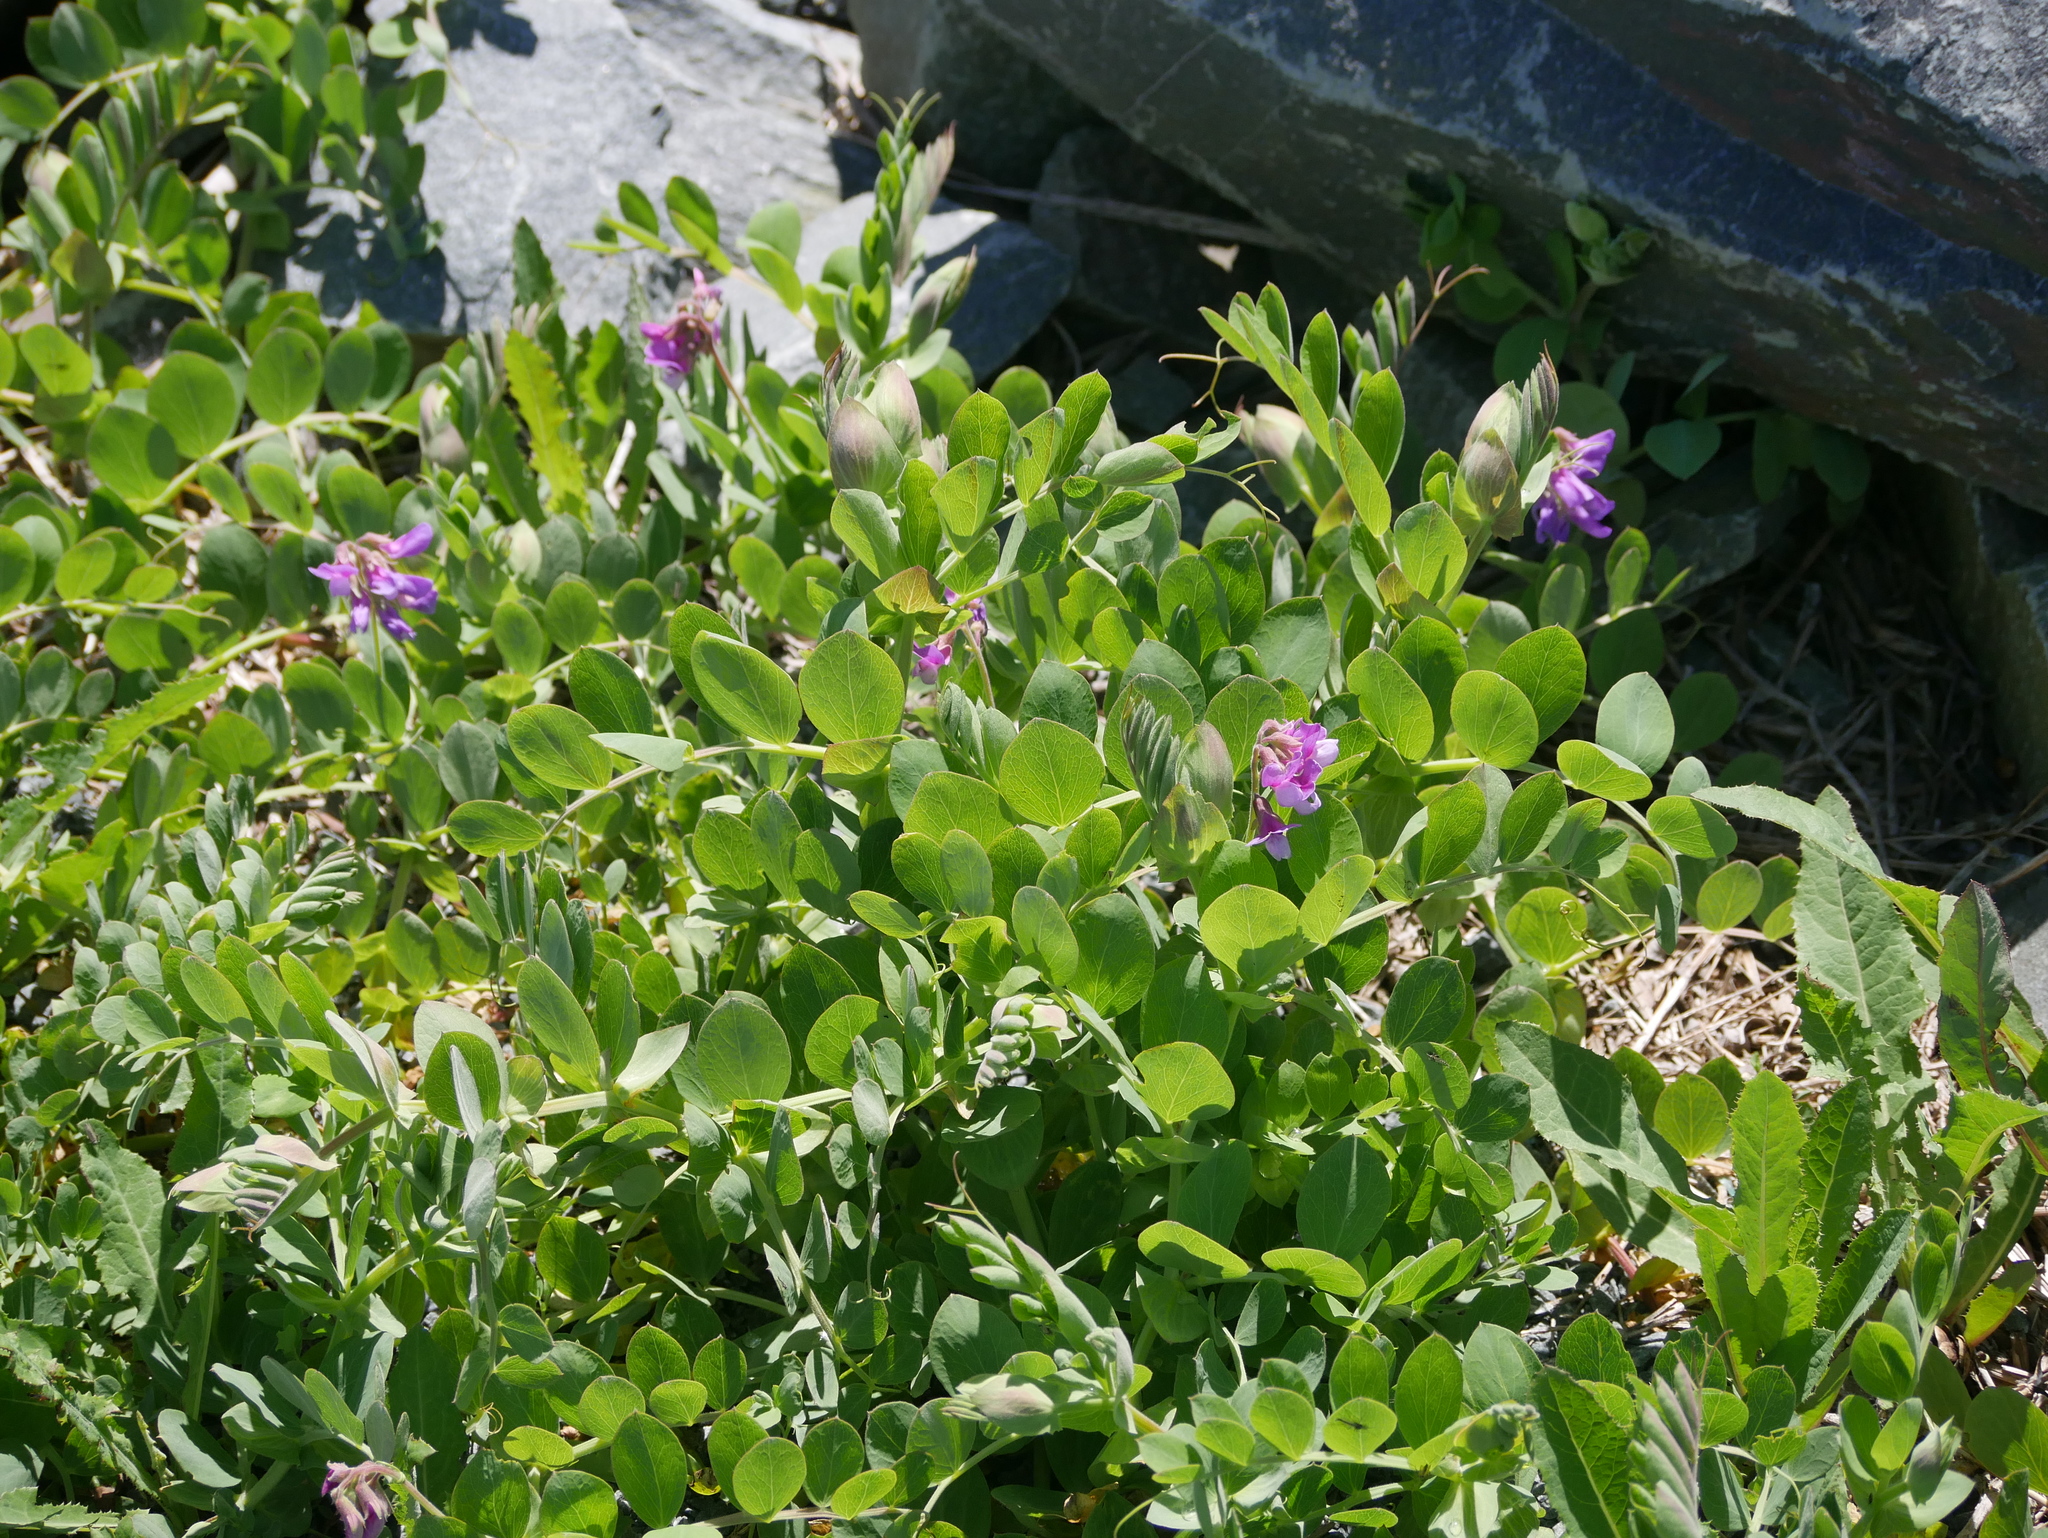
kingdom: Plantae
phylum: Tracheophyta
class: Magnoliopsida
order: Fabales
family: Fabaceae
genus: Lathyrus
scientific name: Lathyrus japonicus
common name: Sea pea
